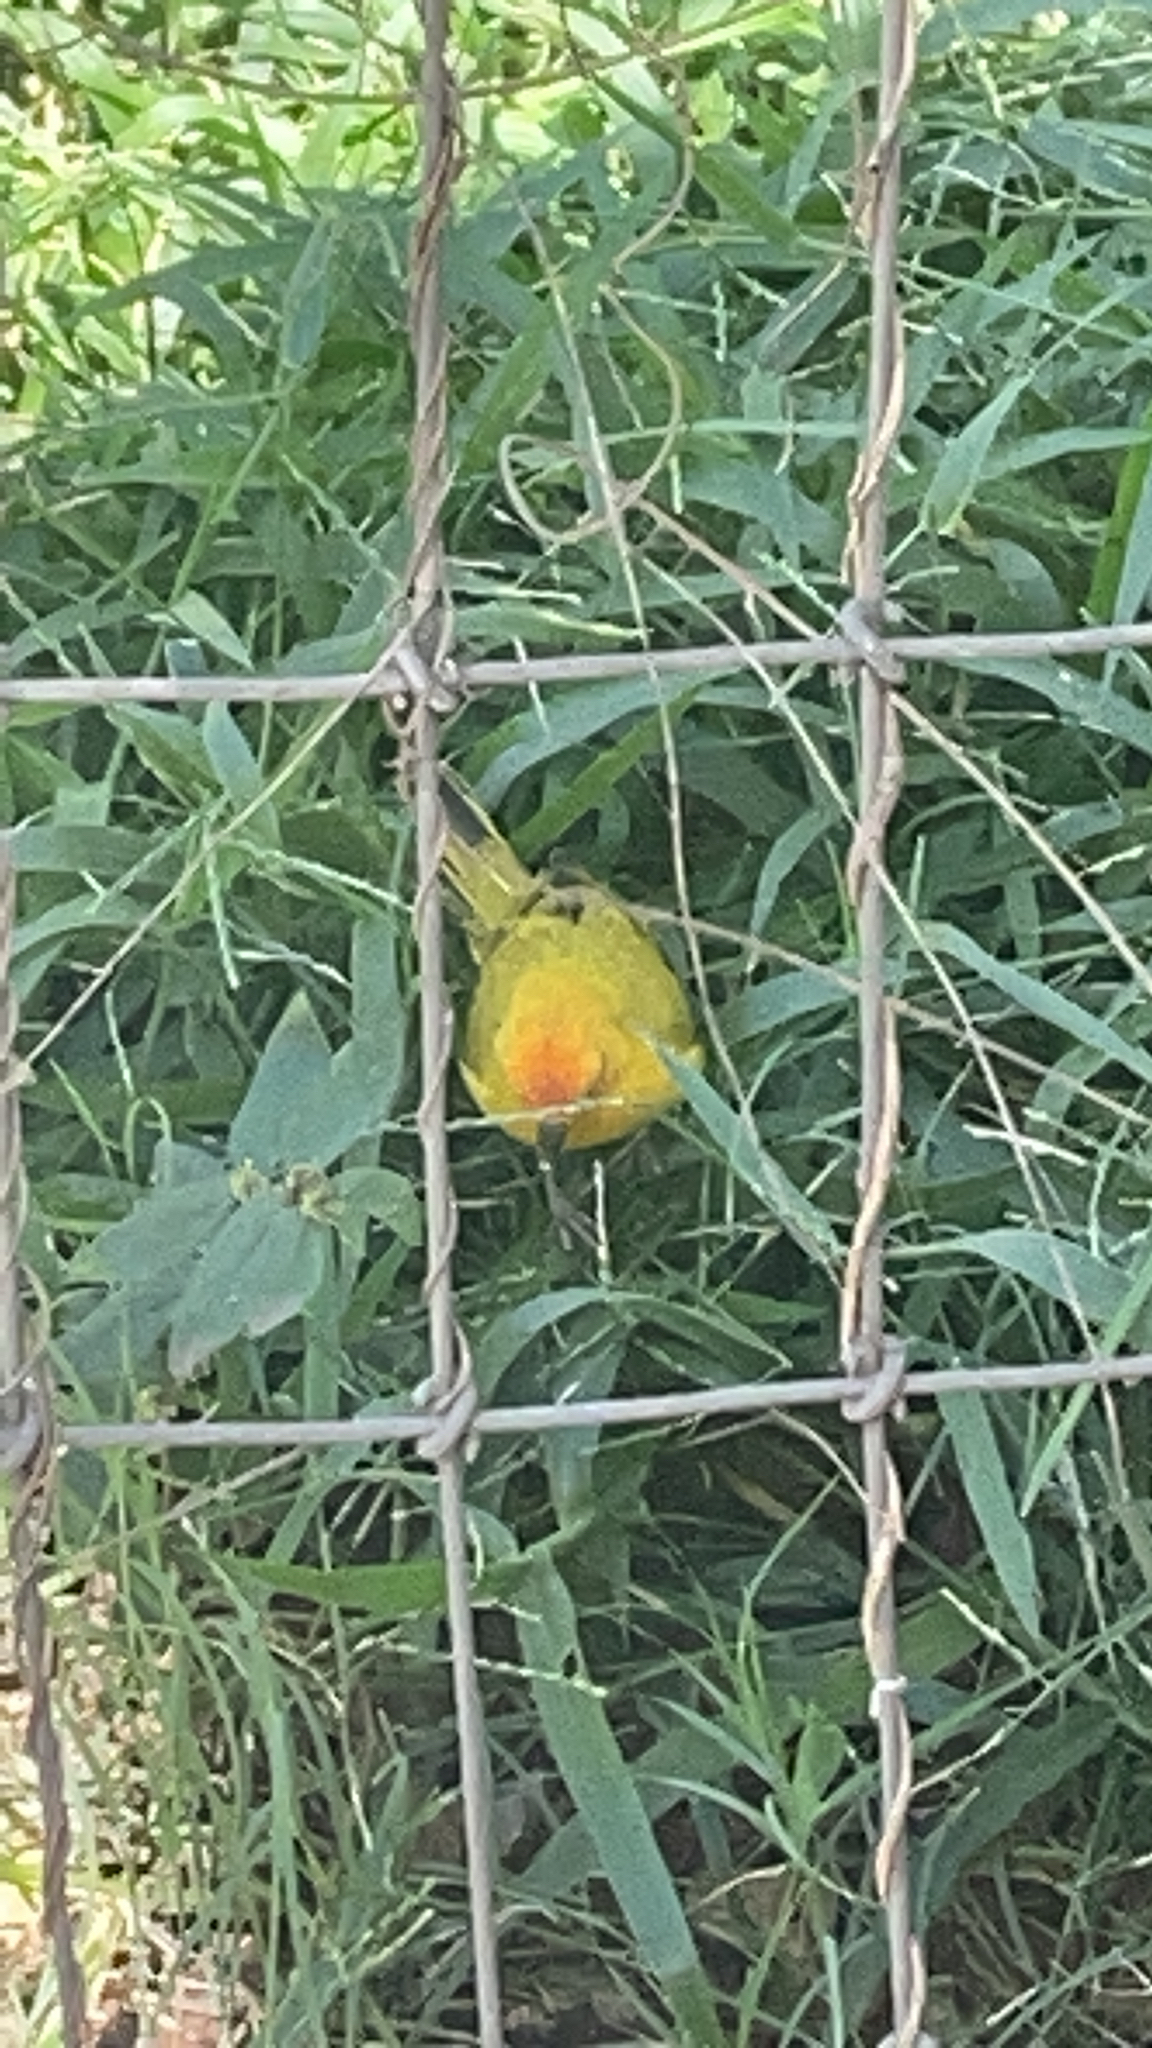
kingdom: Animalia
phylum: Chordata
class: Aves
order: Passeriformes
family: Thraupidae
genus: Sicalis
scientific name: Sicalis flaveola
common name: Saffron finch
